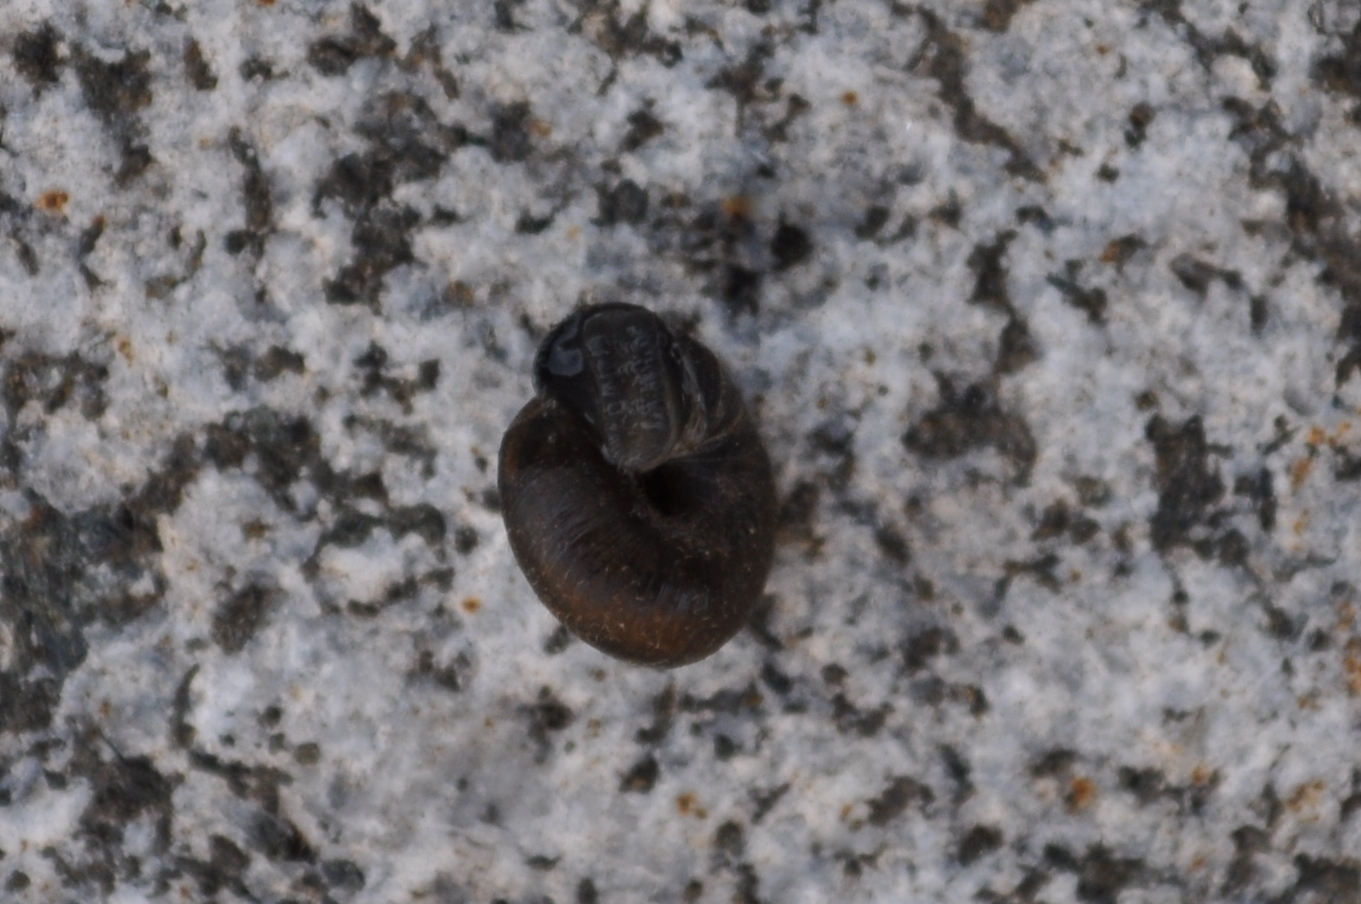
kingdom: Animalia
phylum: Mollusca
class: Gastropoda
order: Stylommatophora
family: Hygromiidae
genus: Trochulus
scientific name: Trochulus hispidus
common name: Hairy snail
